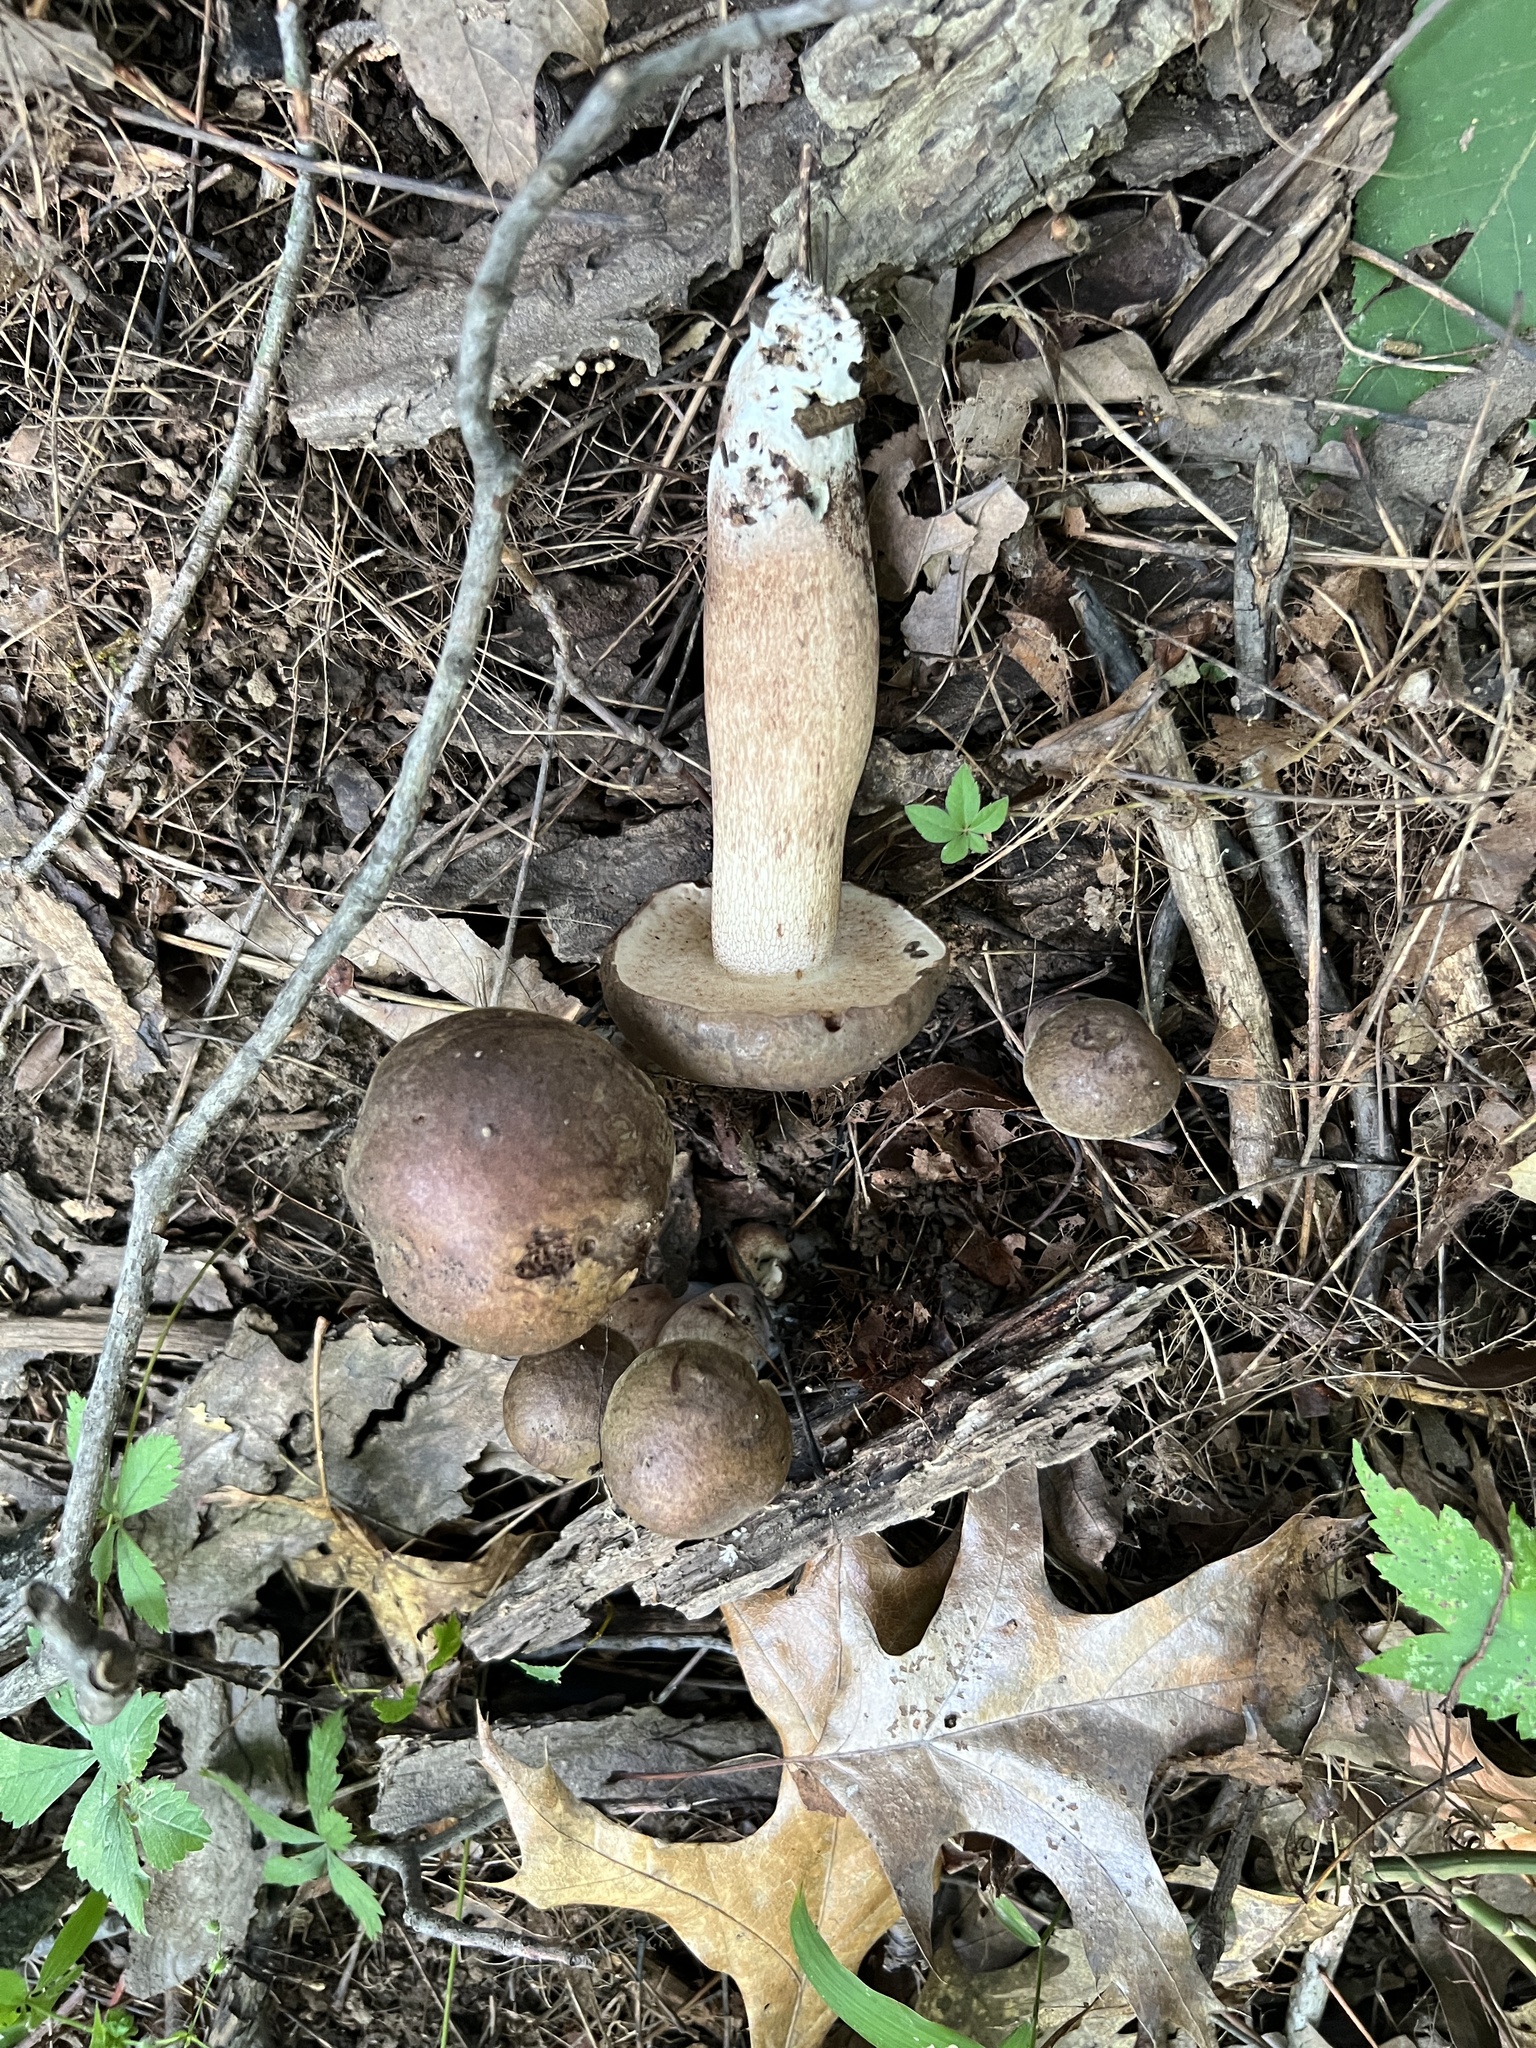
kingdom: Fungi
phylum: Basidiomycota
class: Agaricomycetes
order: Boletales
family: Boletaceae
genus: Tylopilus
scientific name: Tylopilus rubrobrunneus
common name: Reddish brown bitter bolete
